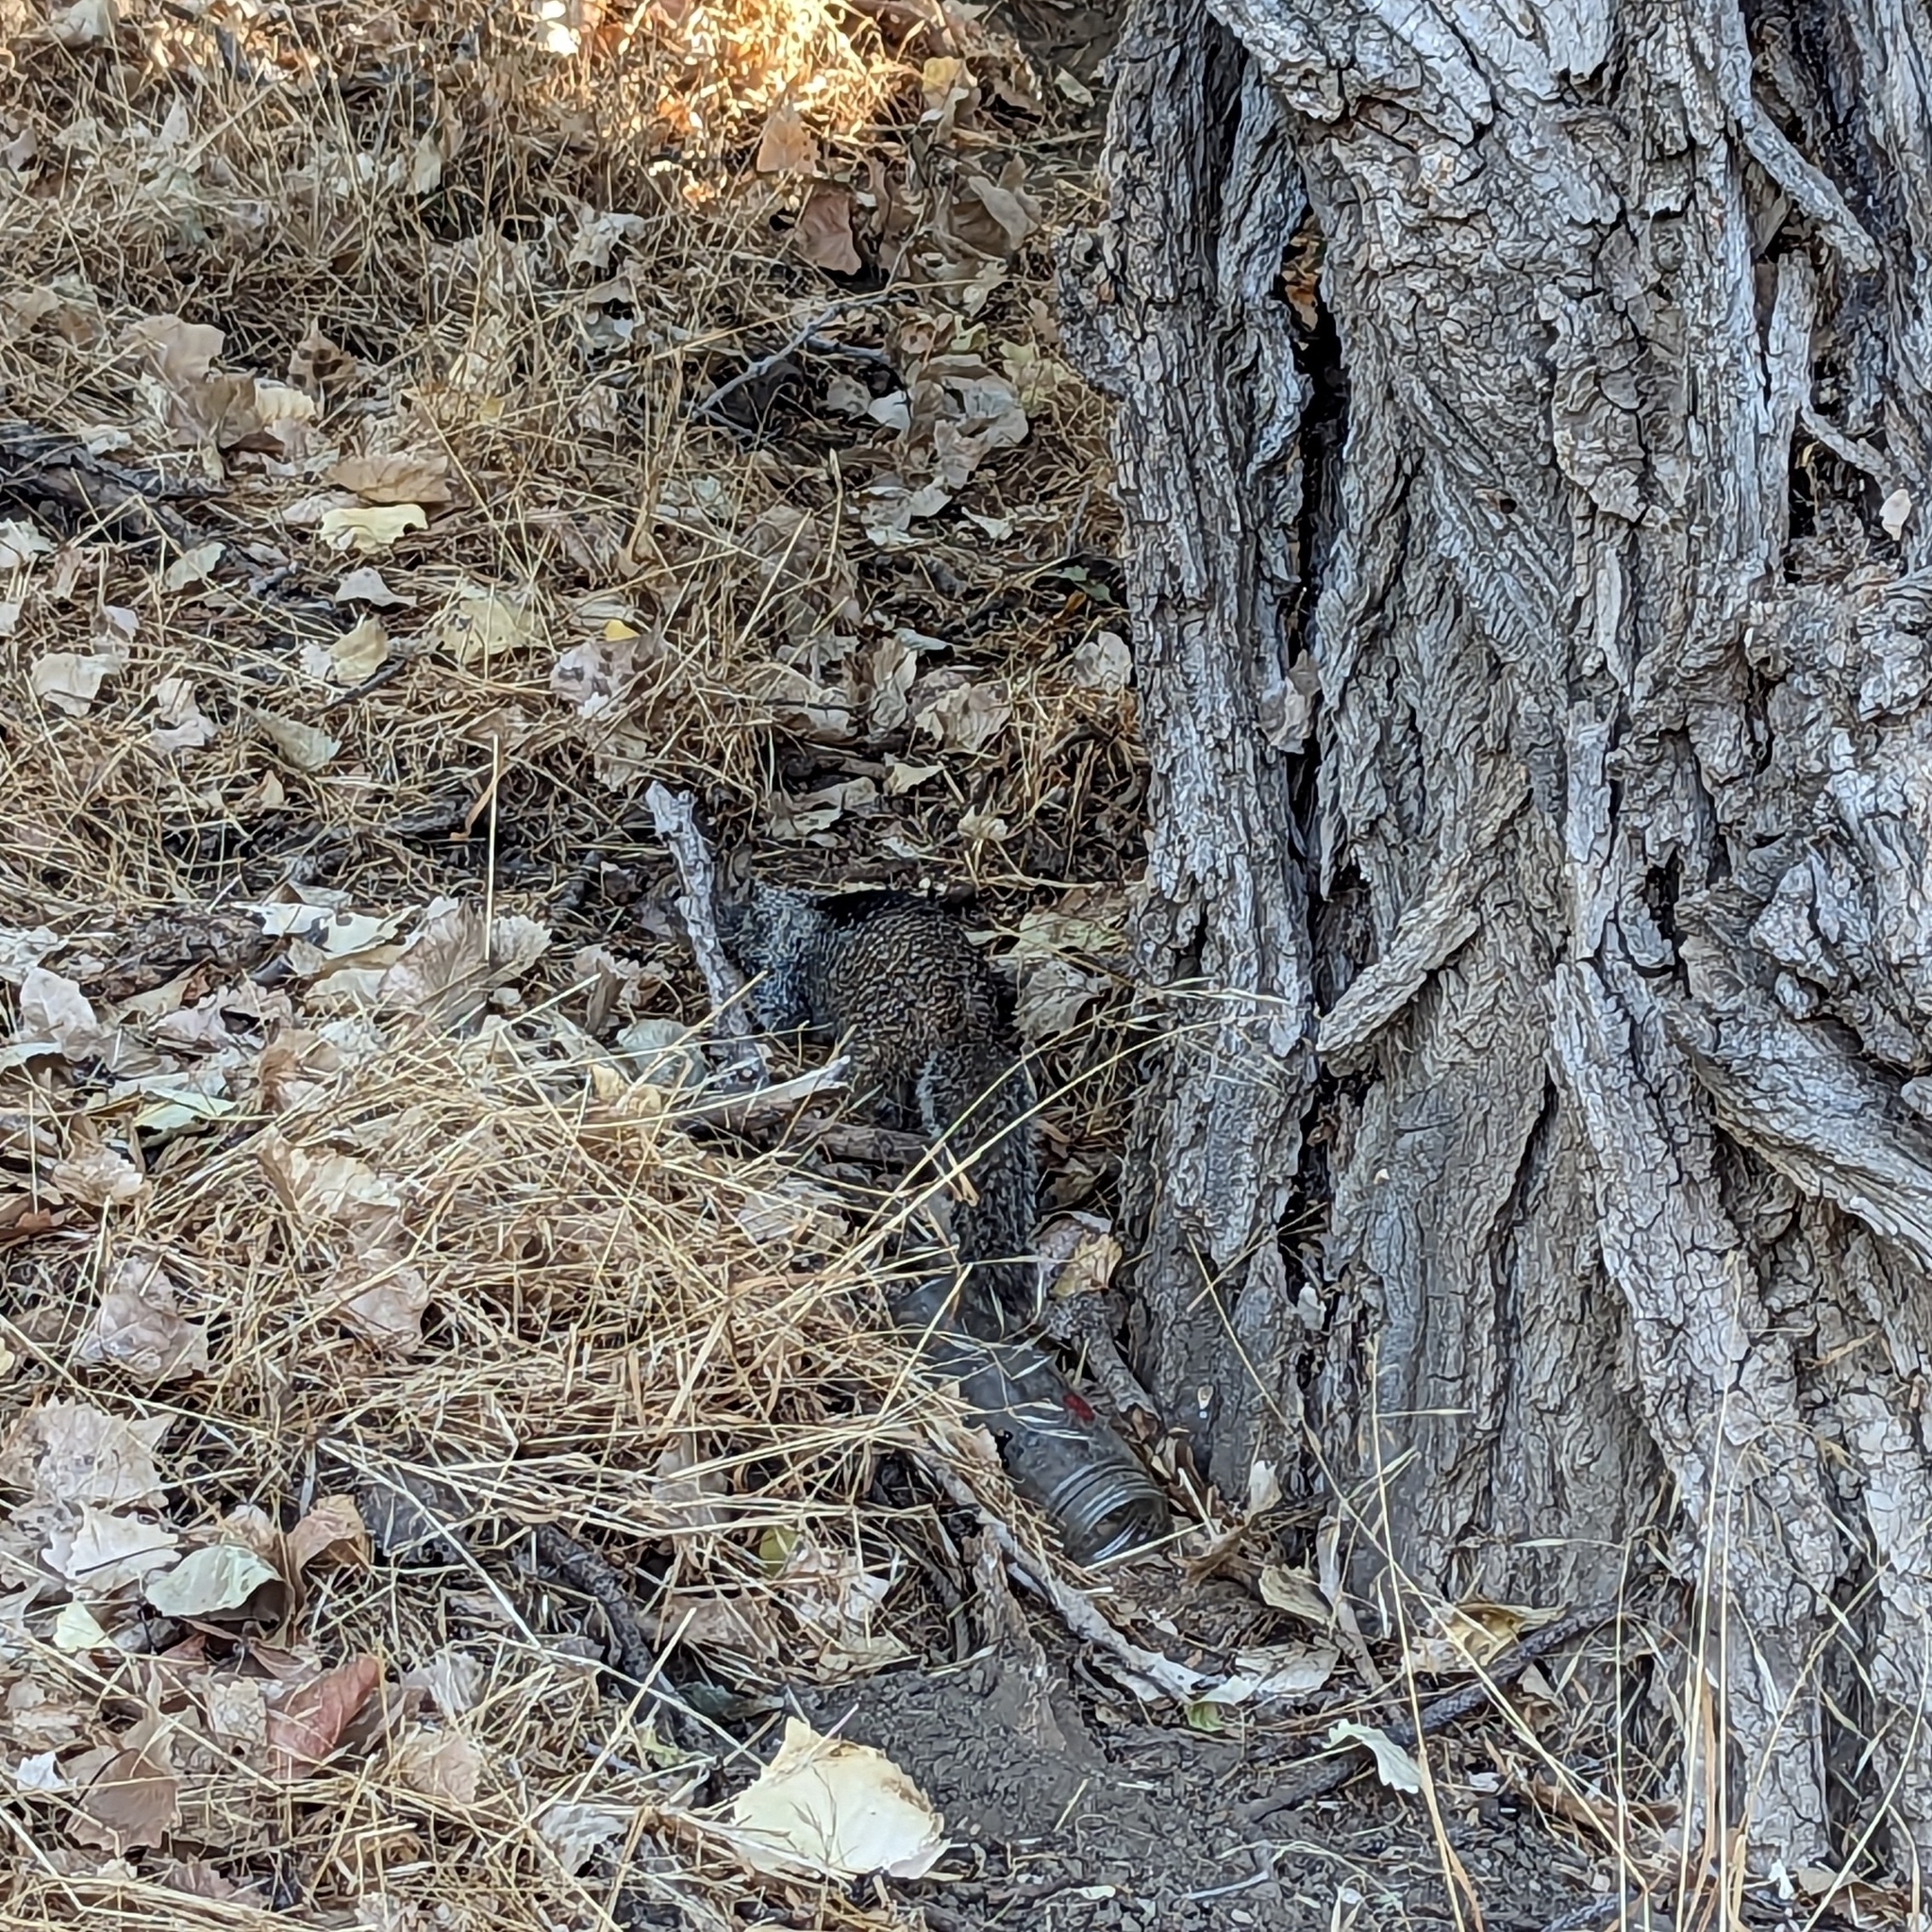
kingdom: Animalia
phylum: Chordata
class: Mammalia
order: Rodentia
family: Sciuridae
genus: Otospermophilus
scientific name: Otospermophilus beecheyi
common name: California ground squirrel
